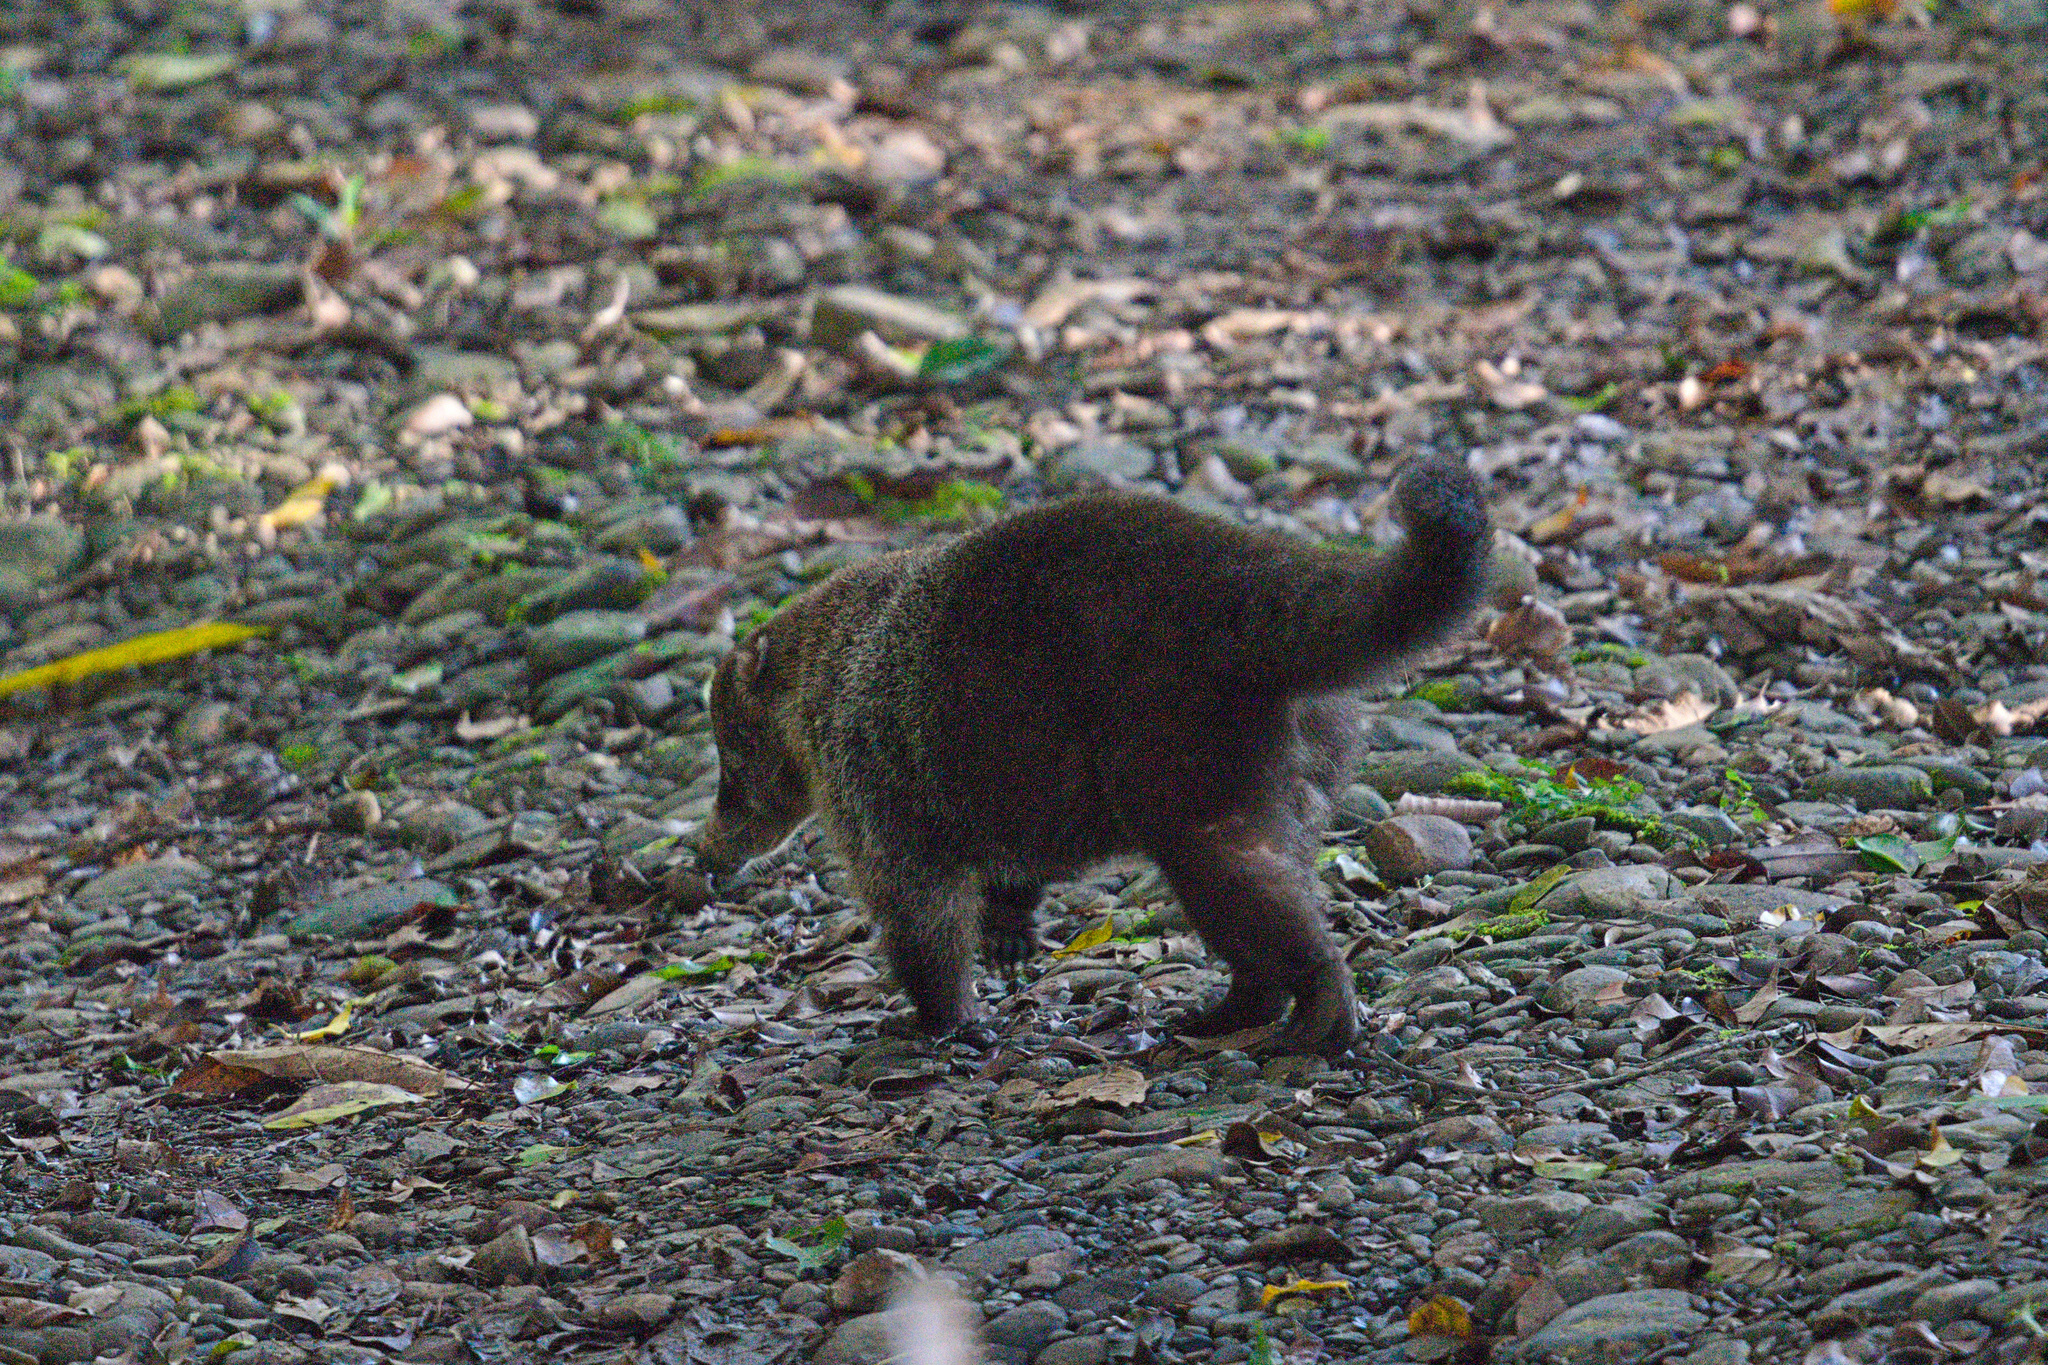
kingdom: Animalia
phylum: Chordata
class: Mammalia
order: Carnivora
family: Procyonidae
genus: Nasua
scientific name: Nasua narica
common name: White-nosed coati
